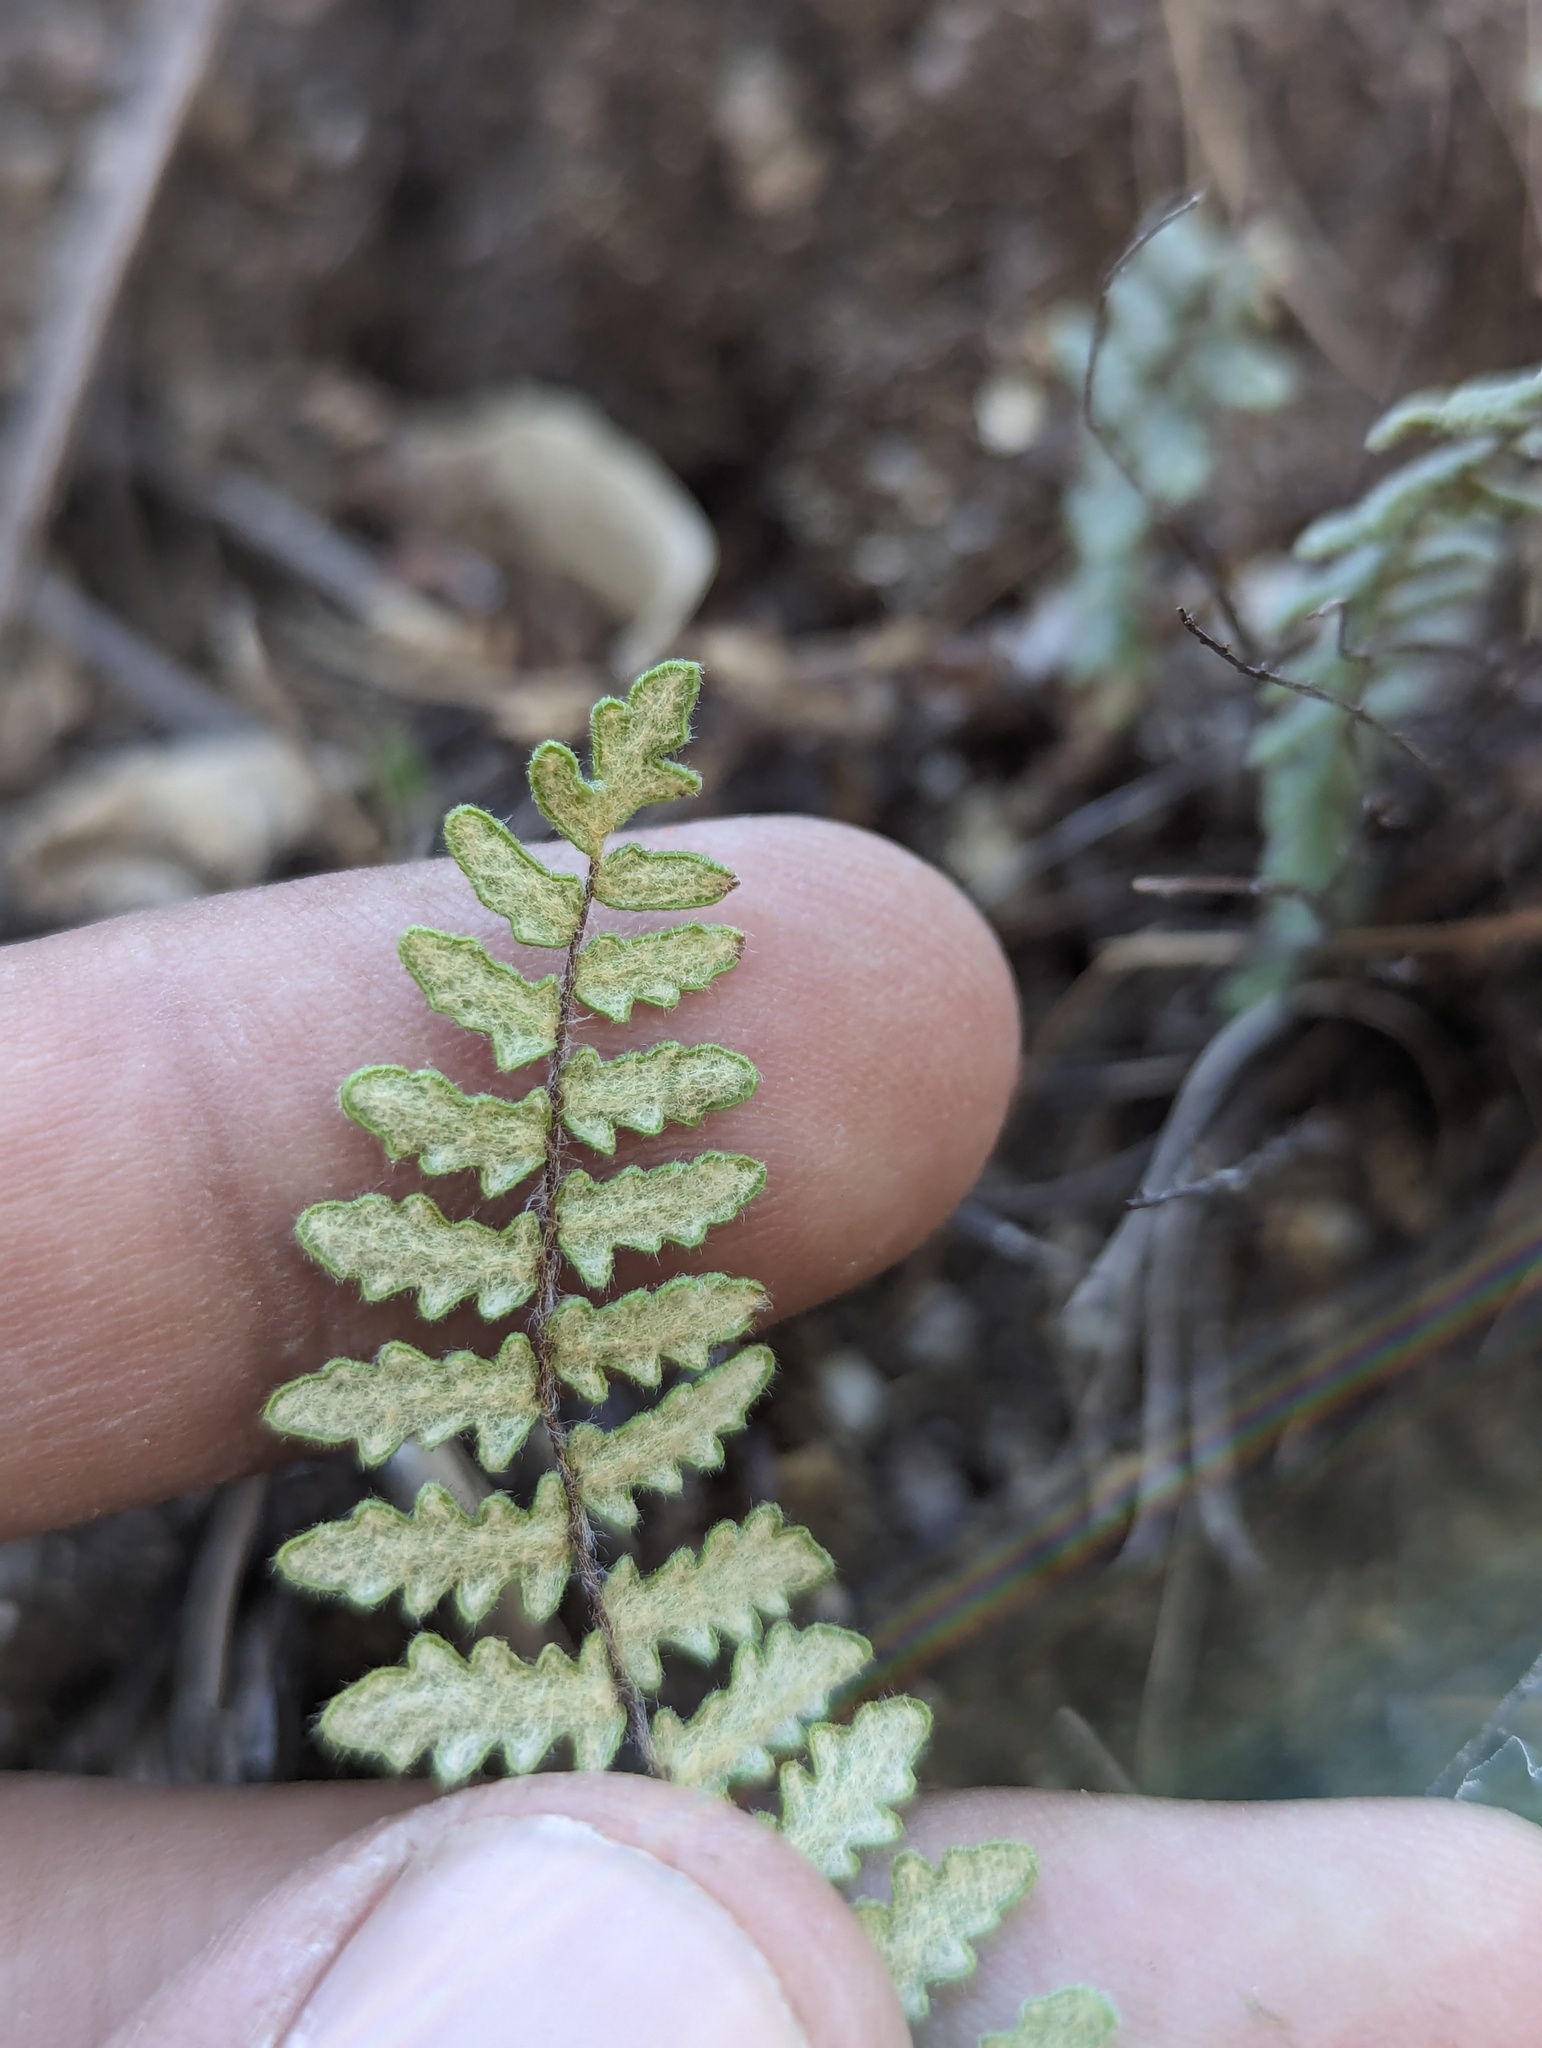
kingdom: Plantae
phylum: Tracheophyta
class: Polypodiopsida
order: Polypodiales
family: Pteridaceae
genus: Myriopteris
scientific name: Myriopteris peninsularis
